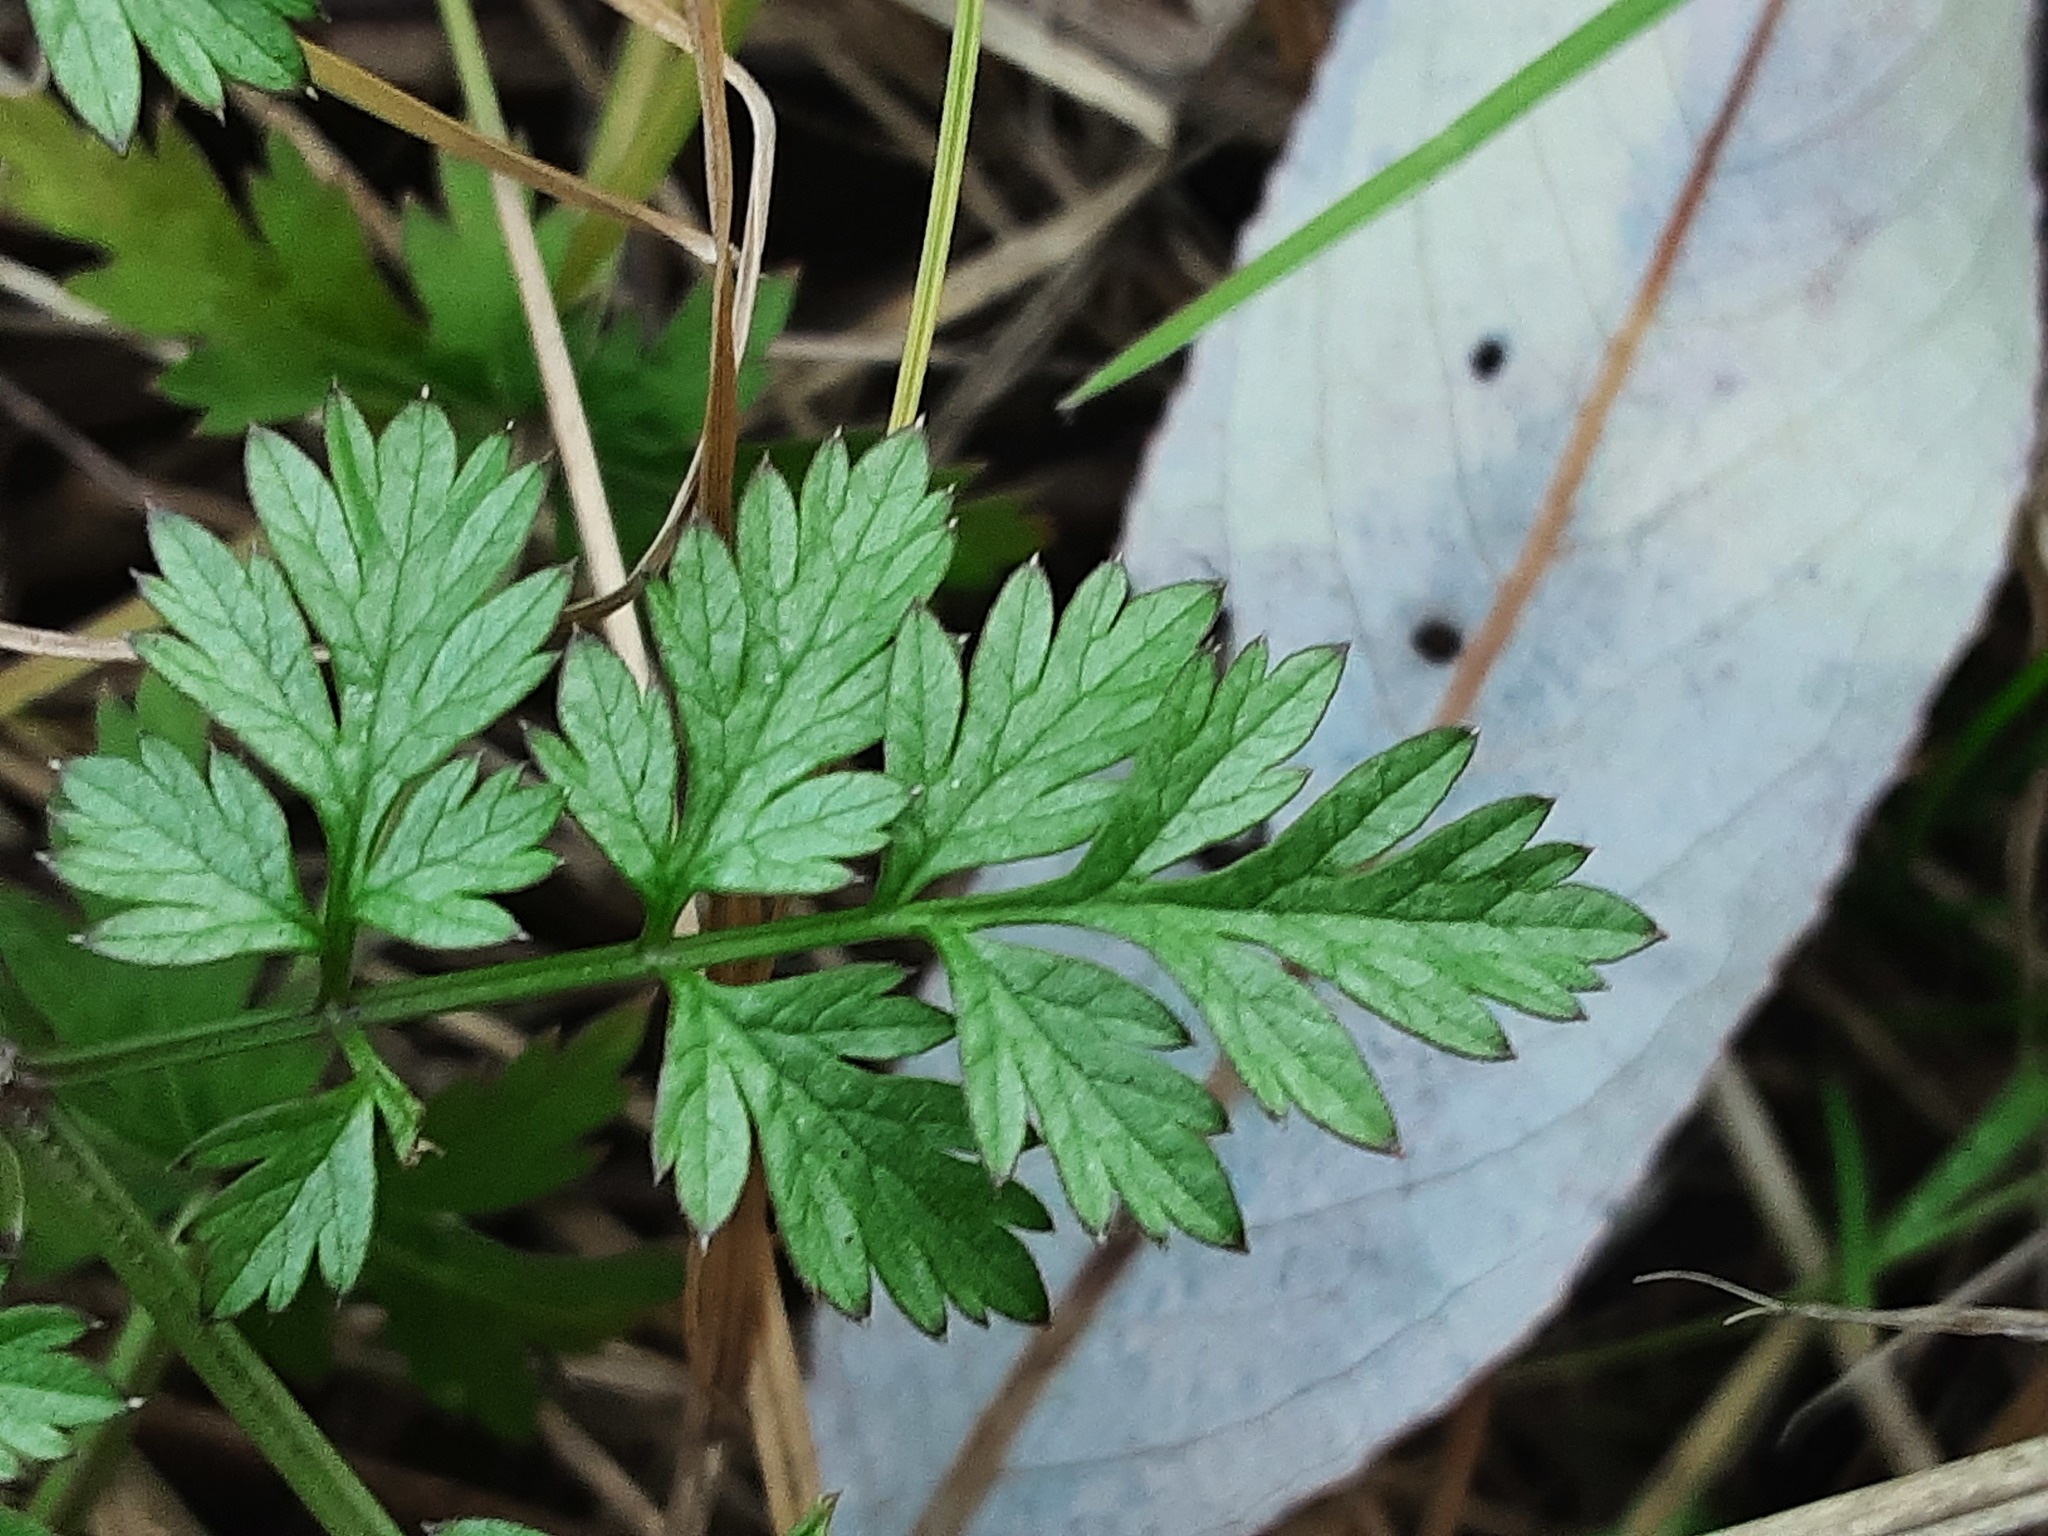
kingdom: Plantae
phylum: Tracheophyta
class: Magnoliopsida
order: Apiales
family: Apiaceae
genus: Anthriscus
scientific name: Anthriscus sylvestris
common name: Cow parsley
